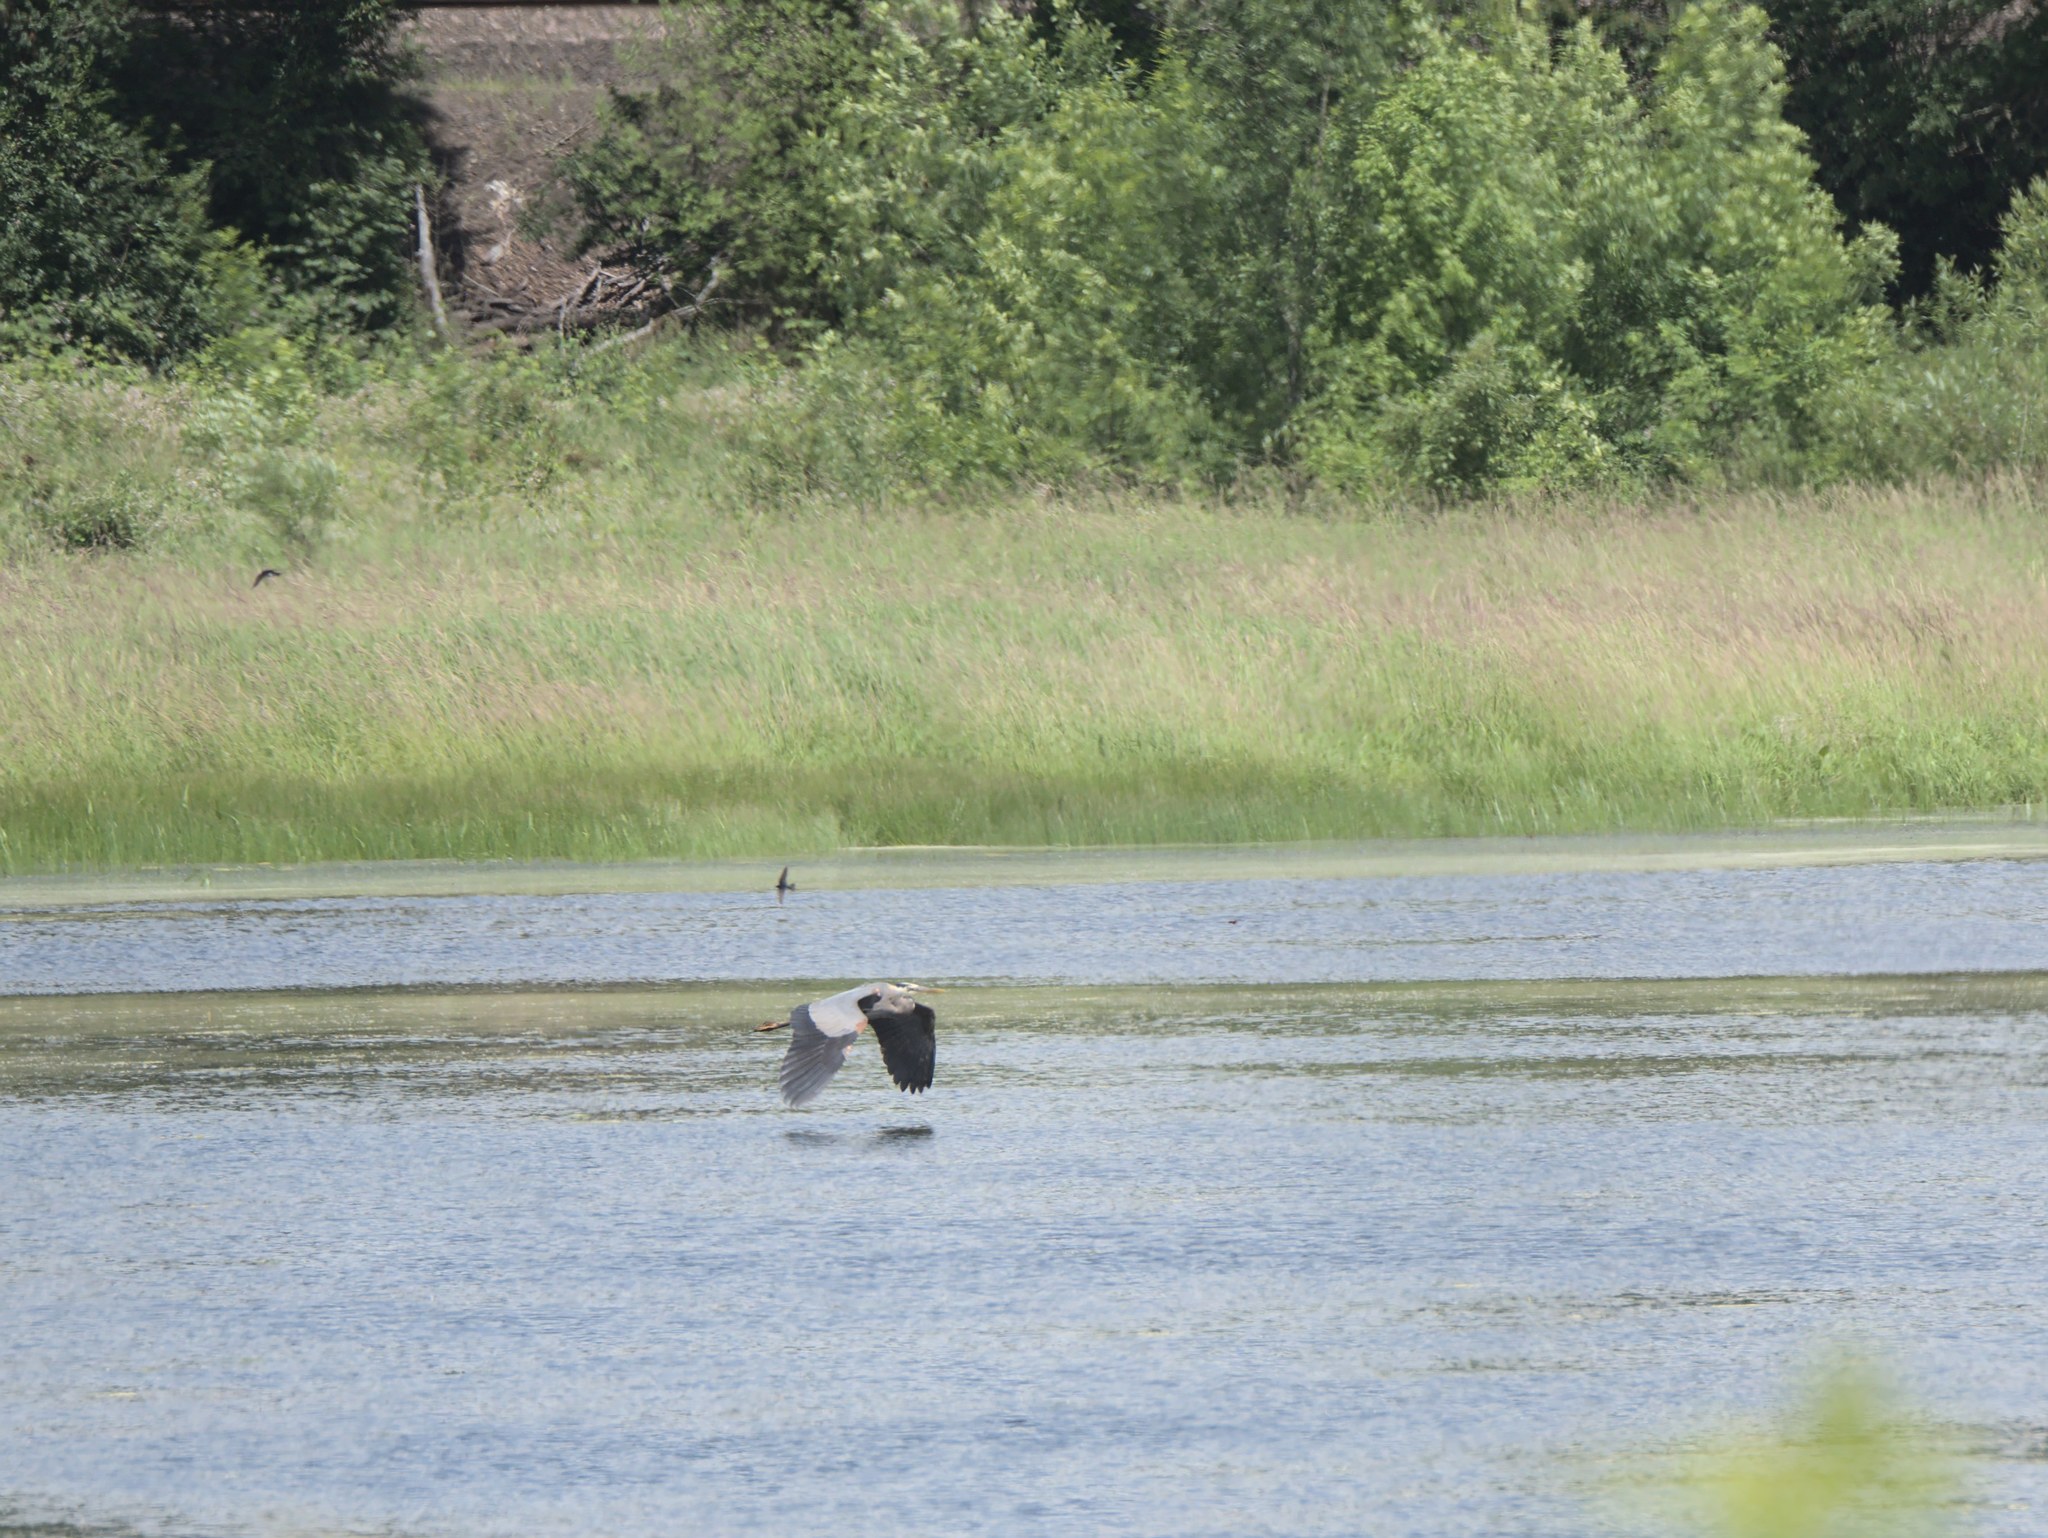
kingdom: Animalia
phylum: Chordata
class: Aves
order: Pelecaniformes
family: Ardeidae
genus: Ardea
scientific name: Ardea herodias
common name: Great blue heron
